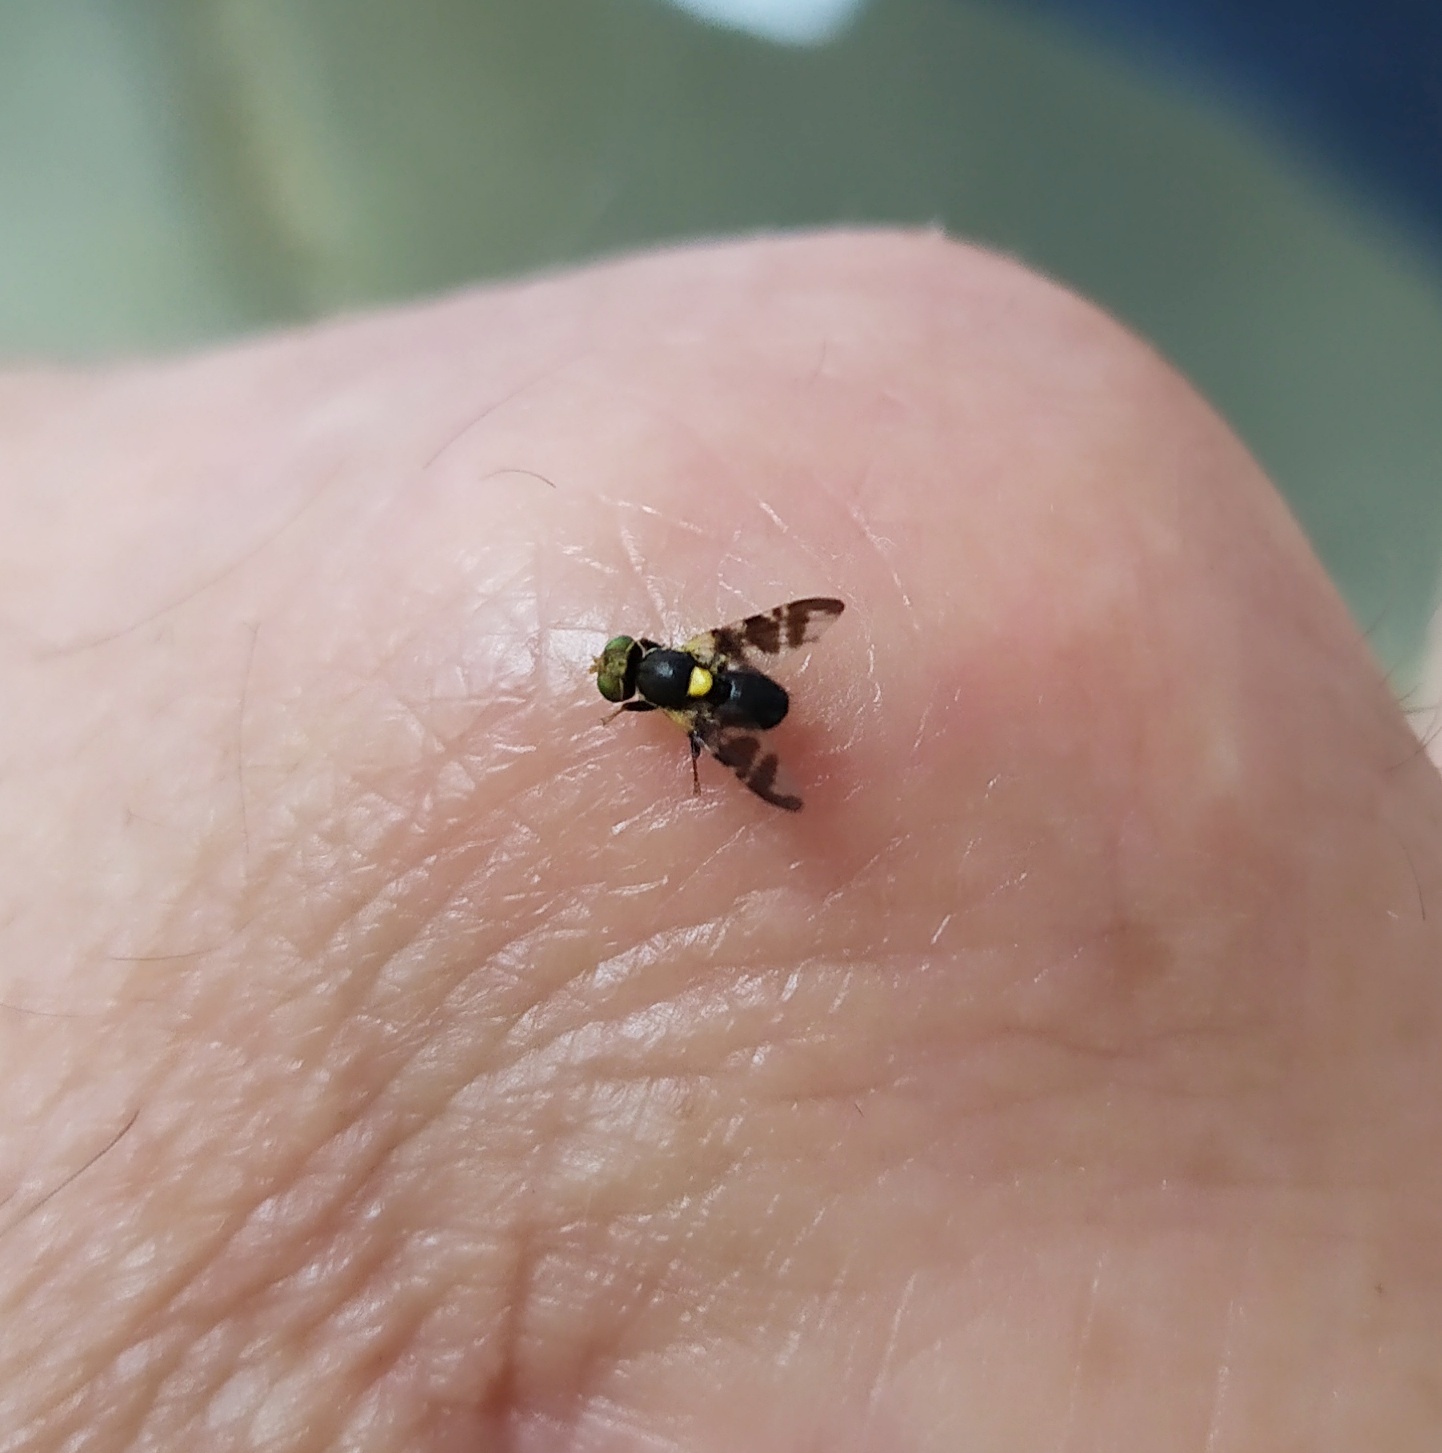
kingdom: Animalia
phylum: Arthropoda
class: Insecta
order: Diptera
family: Tephritidae
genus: Rhagoletis
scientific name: Rhagoletis cerasi
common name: European cherry fruit fly
